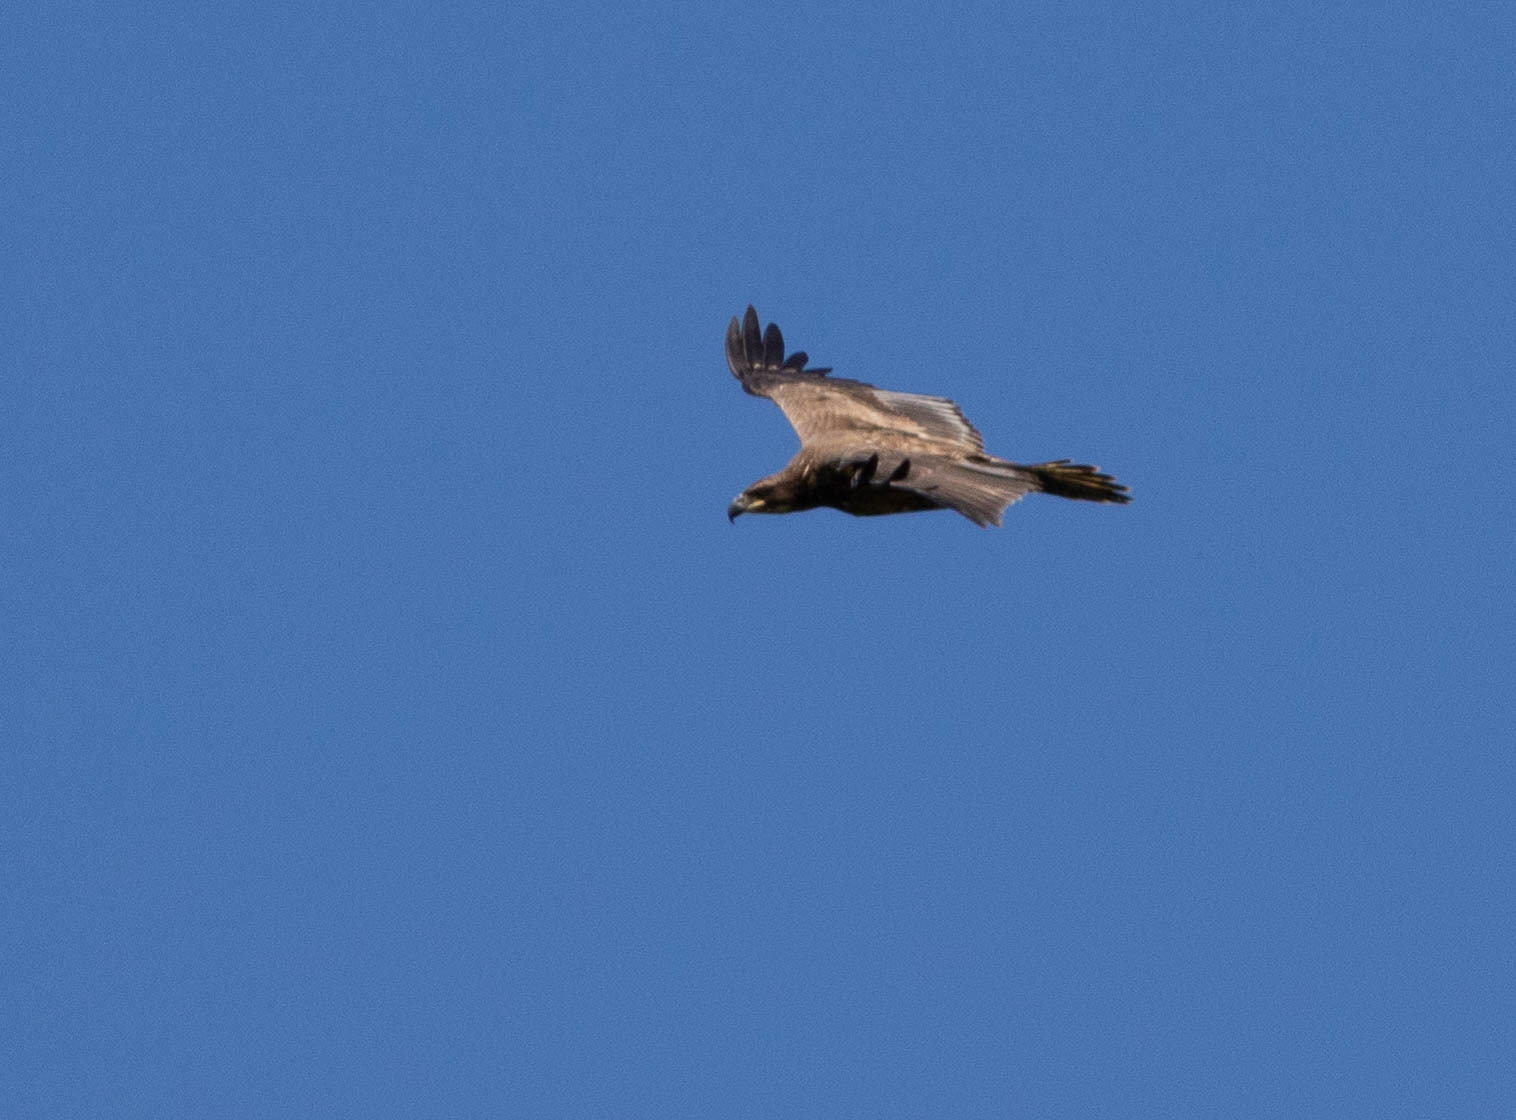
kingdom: Animalia
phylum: Chordata
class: Aves
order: Accipitriformes
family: Accipitridae
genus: Haliaeetus
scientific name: Haliaeetus leucocephalus
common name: Bald eagle
